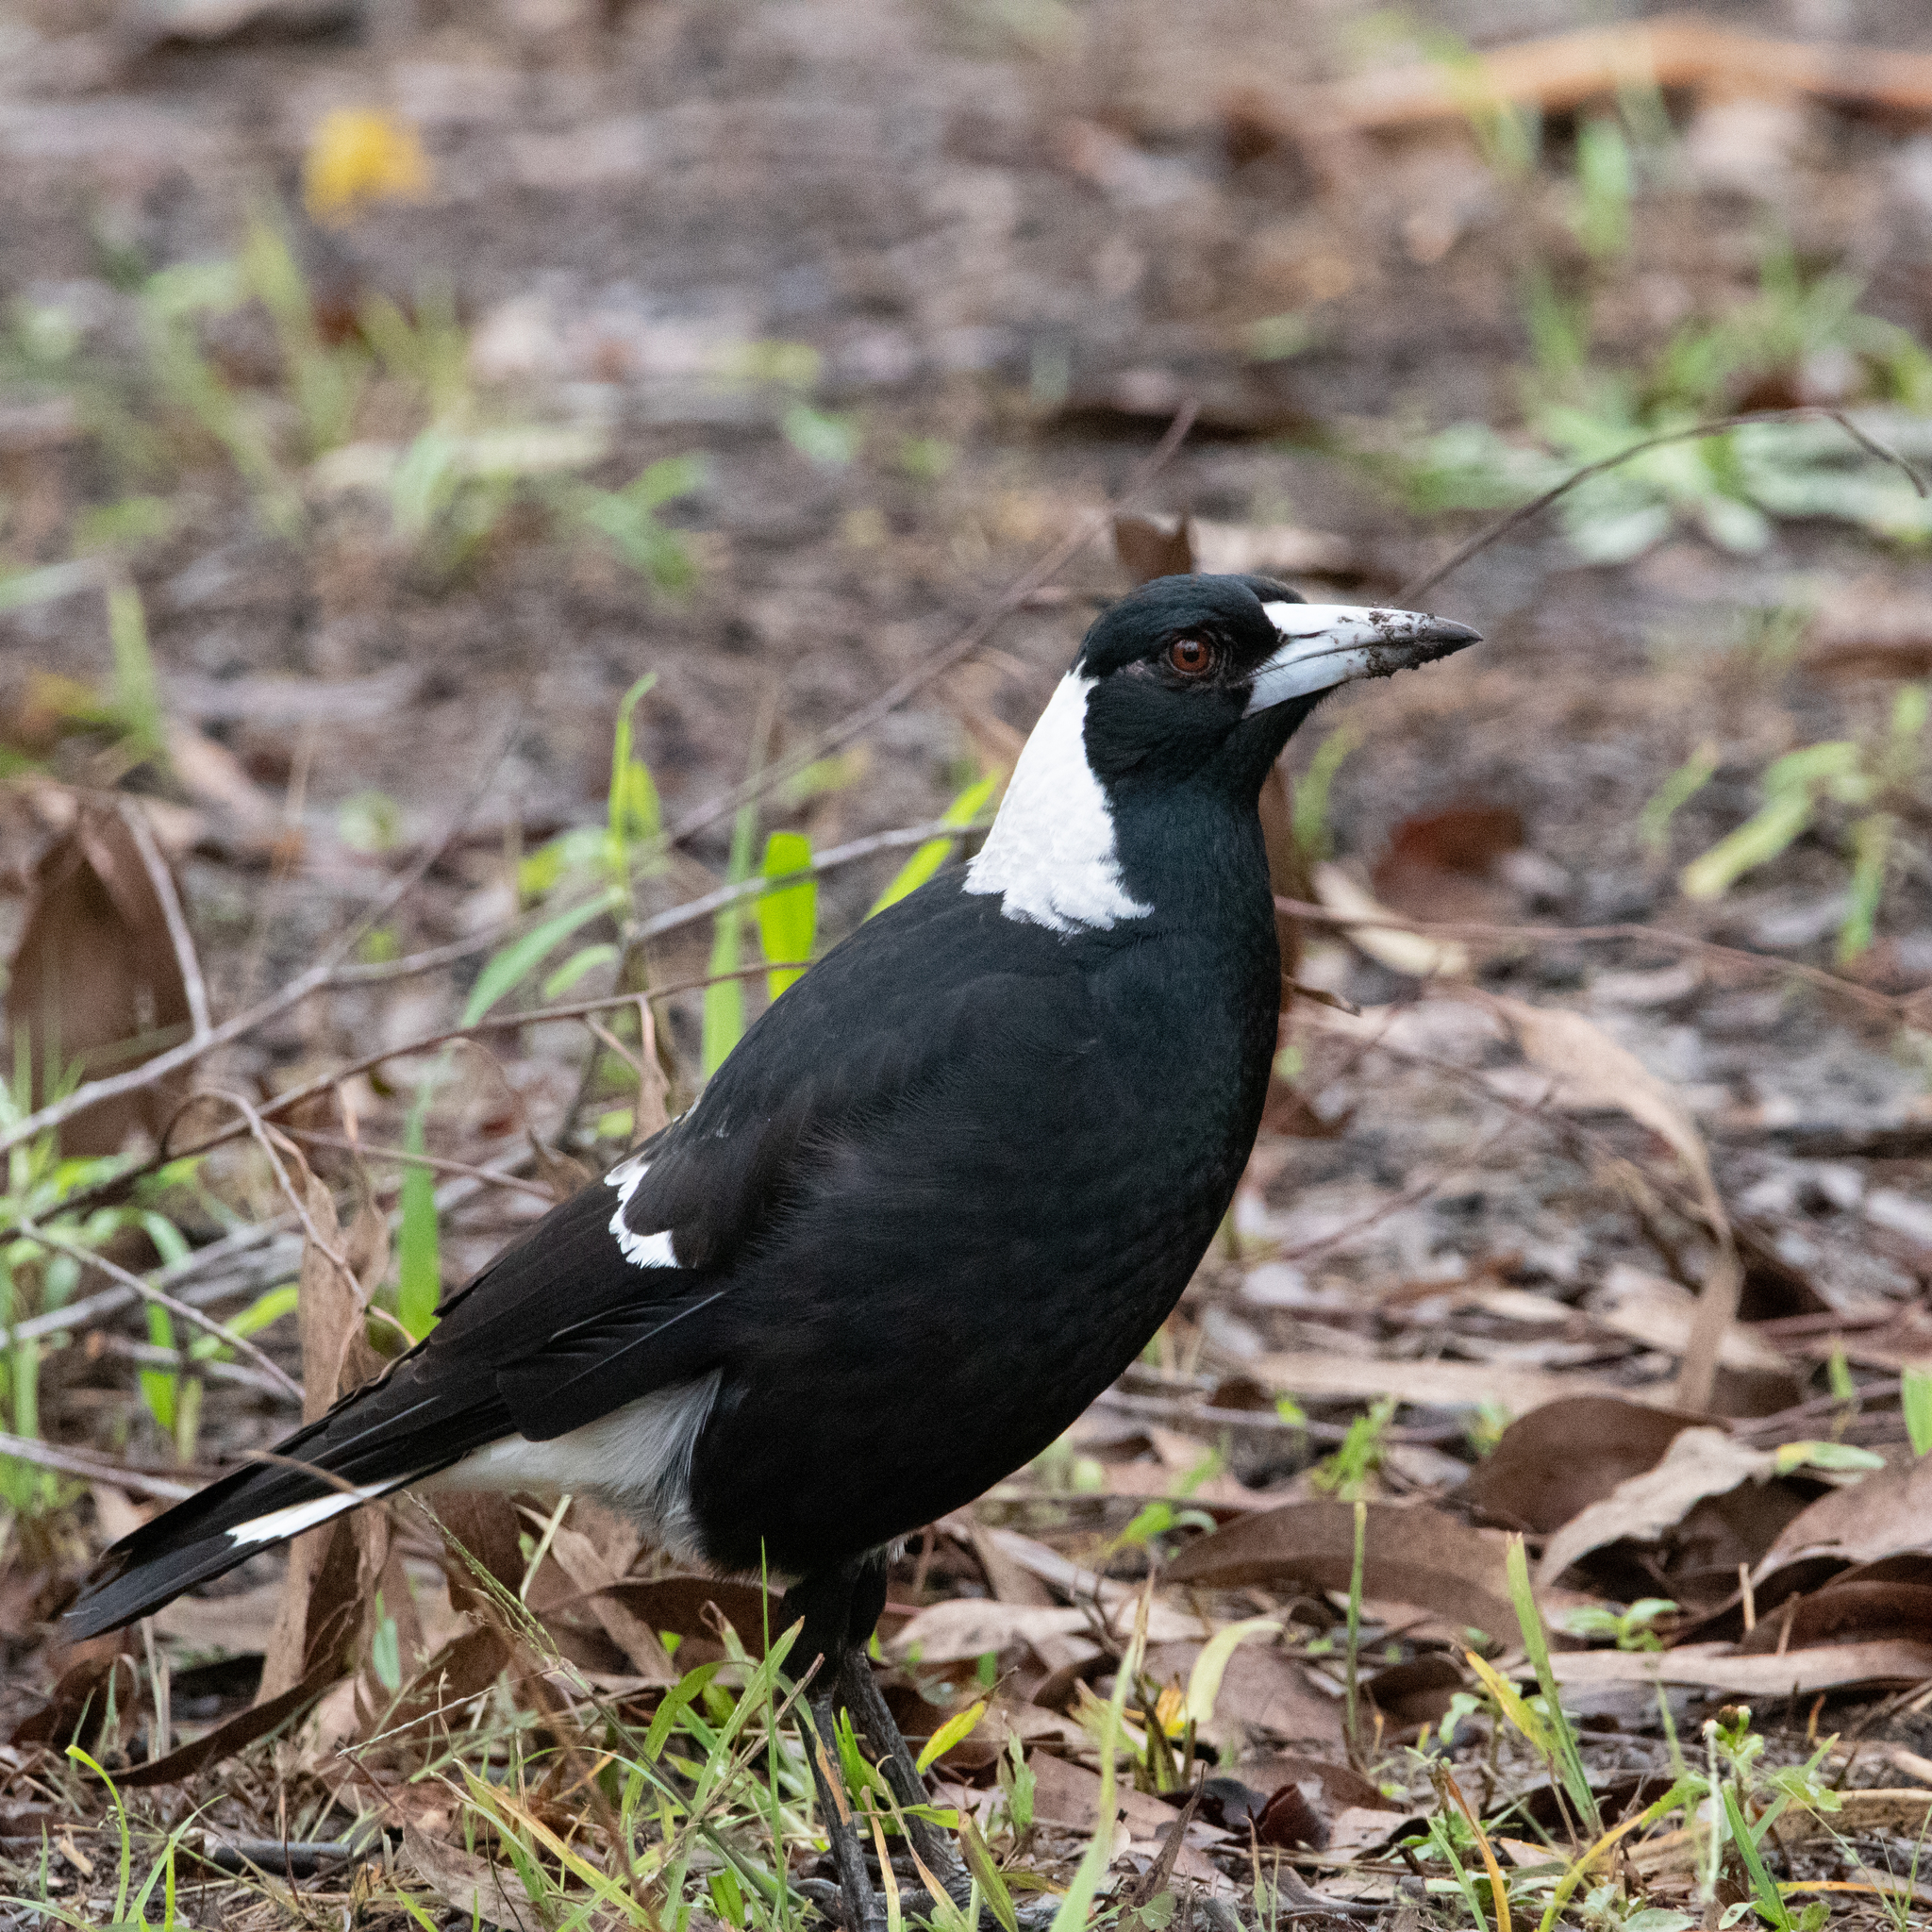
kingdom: Animalia
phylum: Chordata
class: Aves
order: Passeriformes
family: Cracticidae
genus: Gymnorhina
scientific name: Gymnorhina tibicen
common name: Australian magpie
